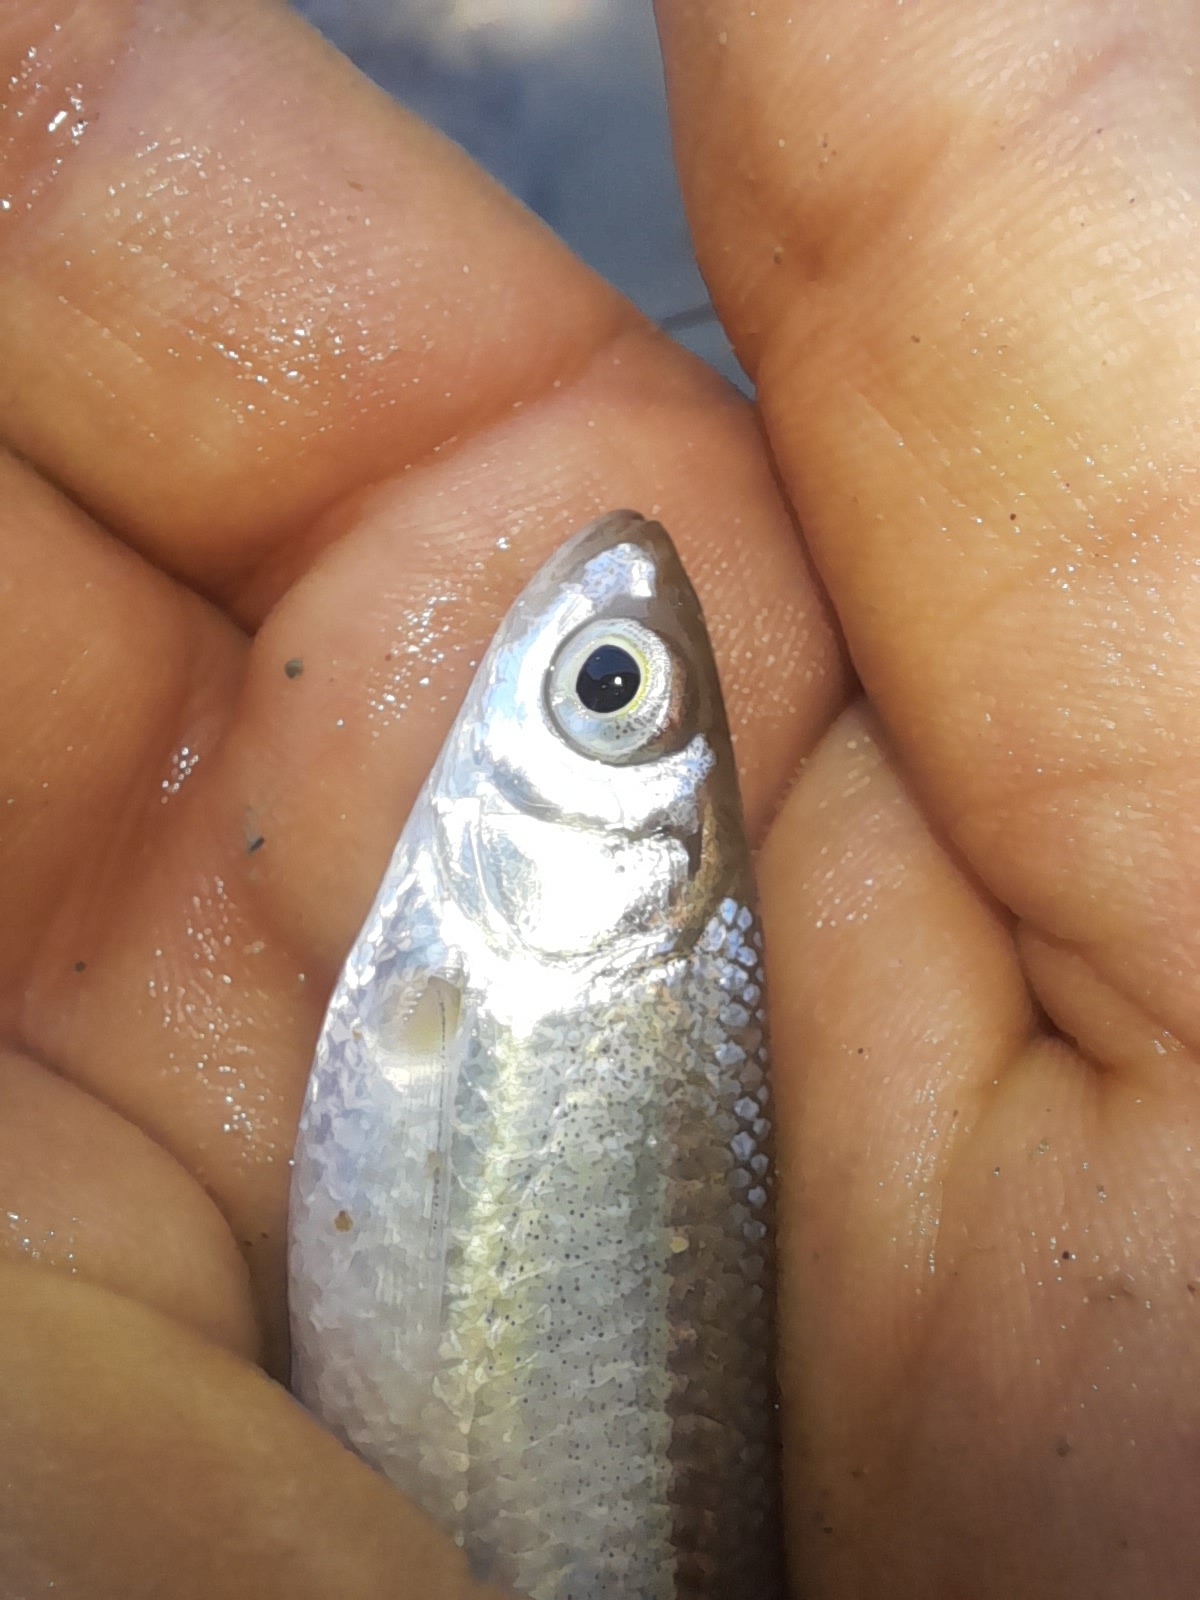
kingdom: Animalia
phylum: Chordata
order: Cypriniformes
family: Cyprinidae
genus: Alburnus
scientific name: Alburnus arborella
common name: Alborella
